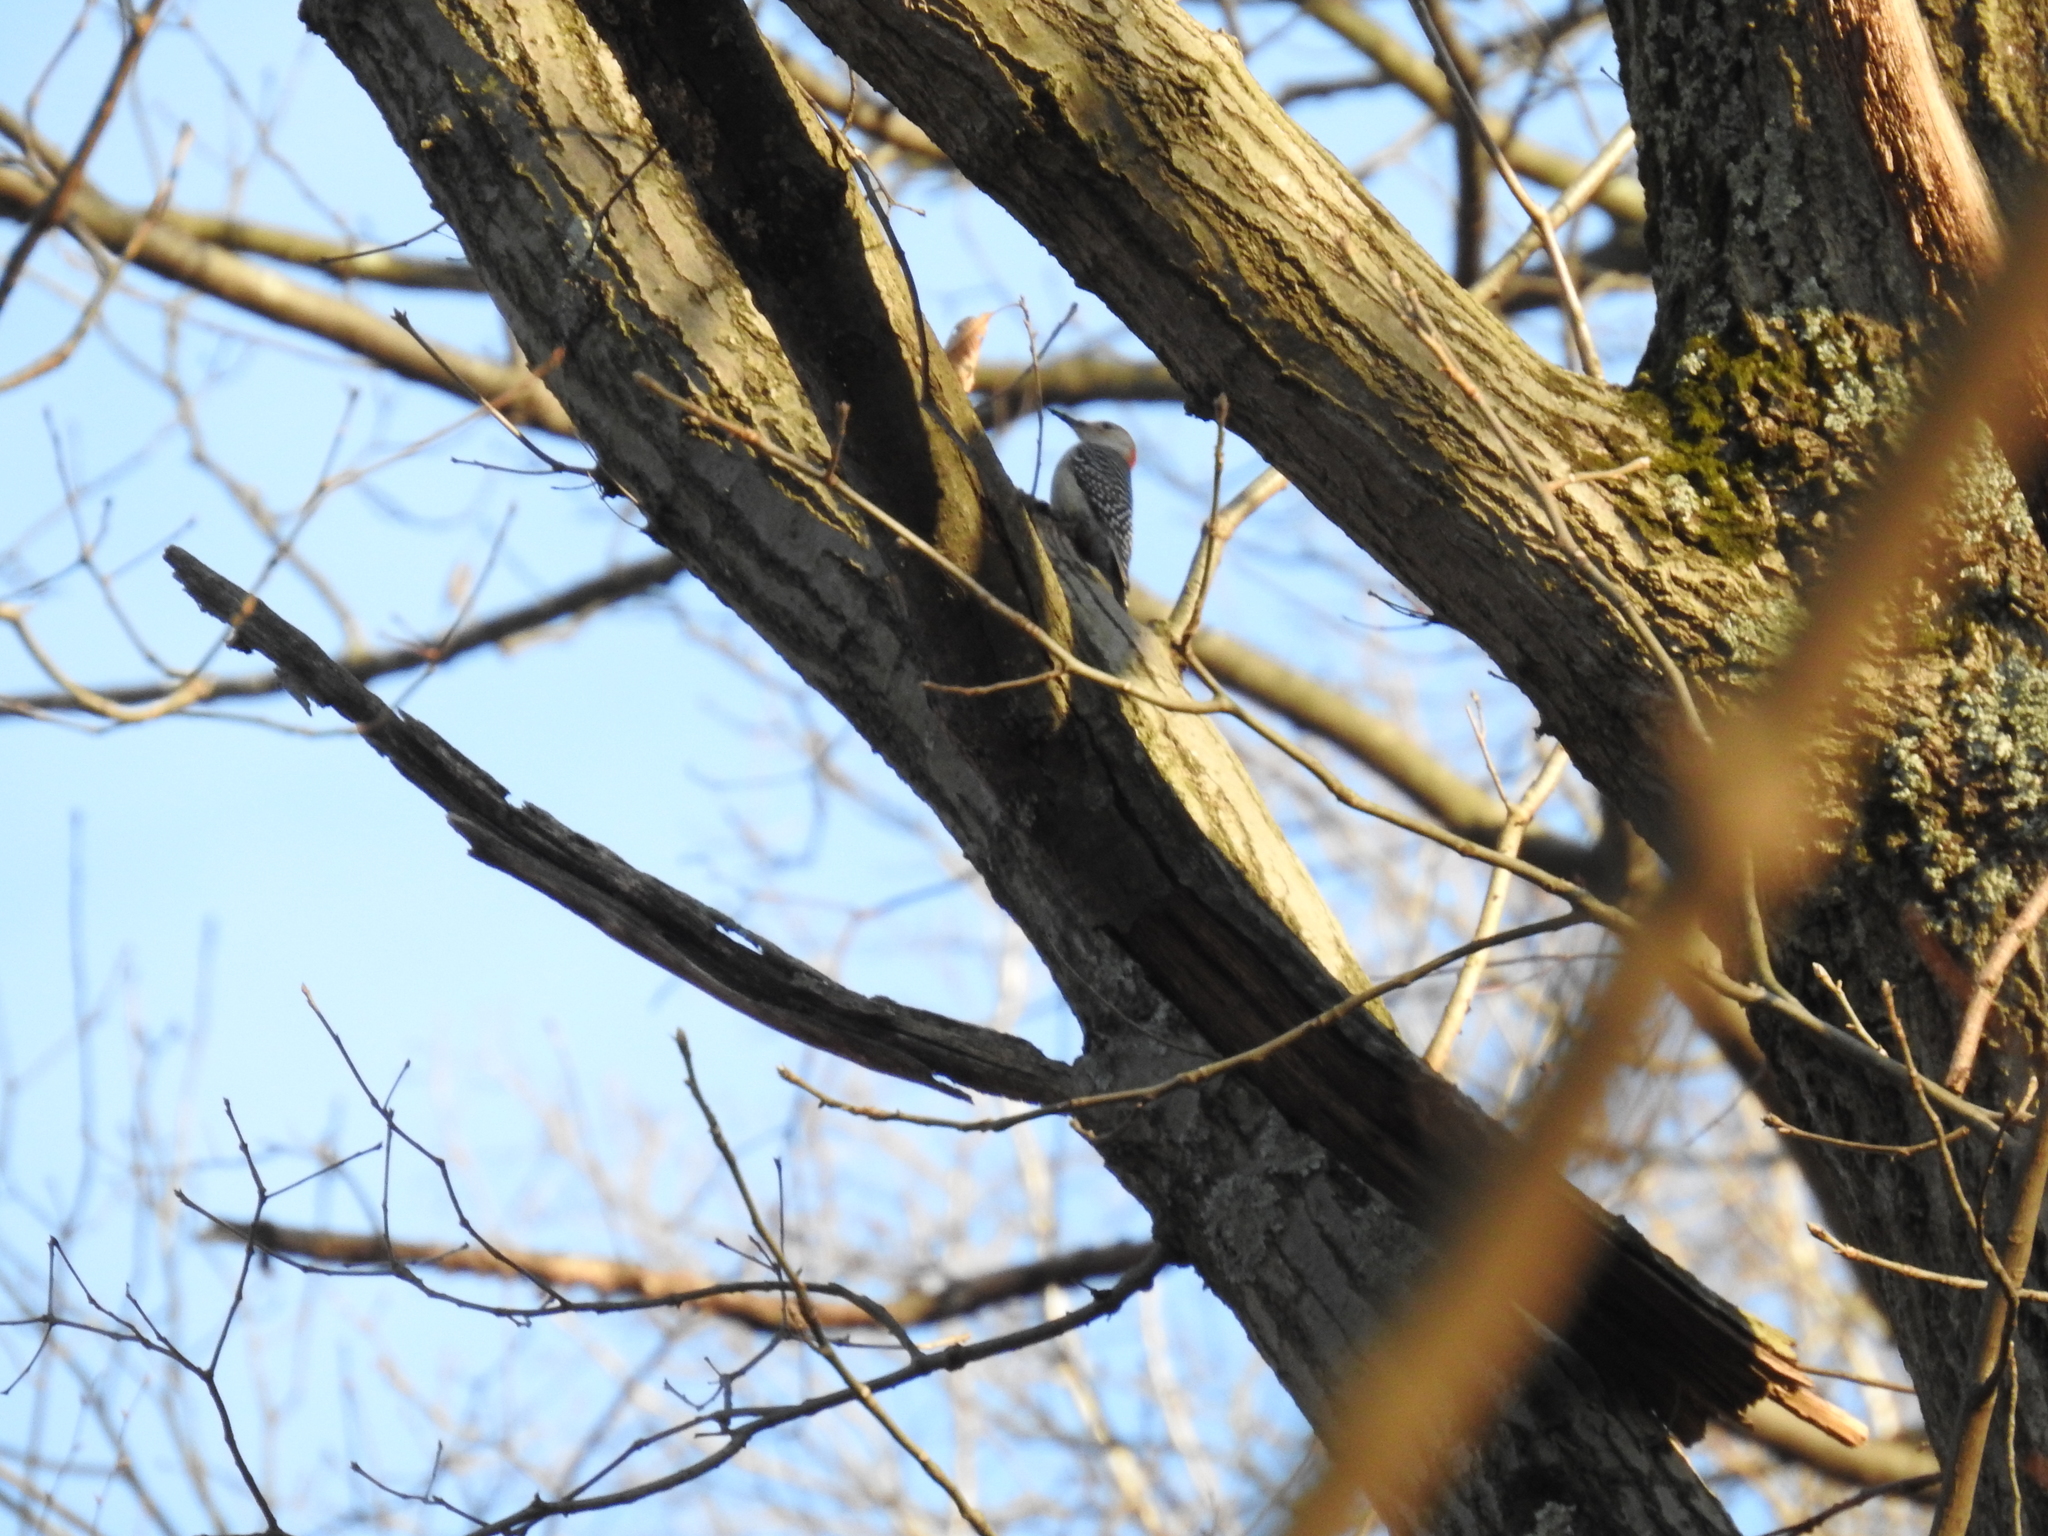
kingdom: Animalia
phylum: Chordata
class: Aves
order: Piciformes
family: Picidae
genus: Melanerpes
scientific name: Melanerpes carolinus
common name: Red-bellied woodpecker
